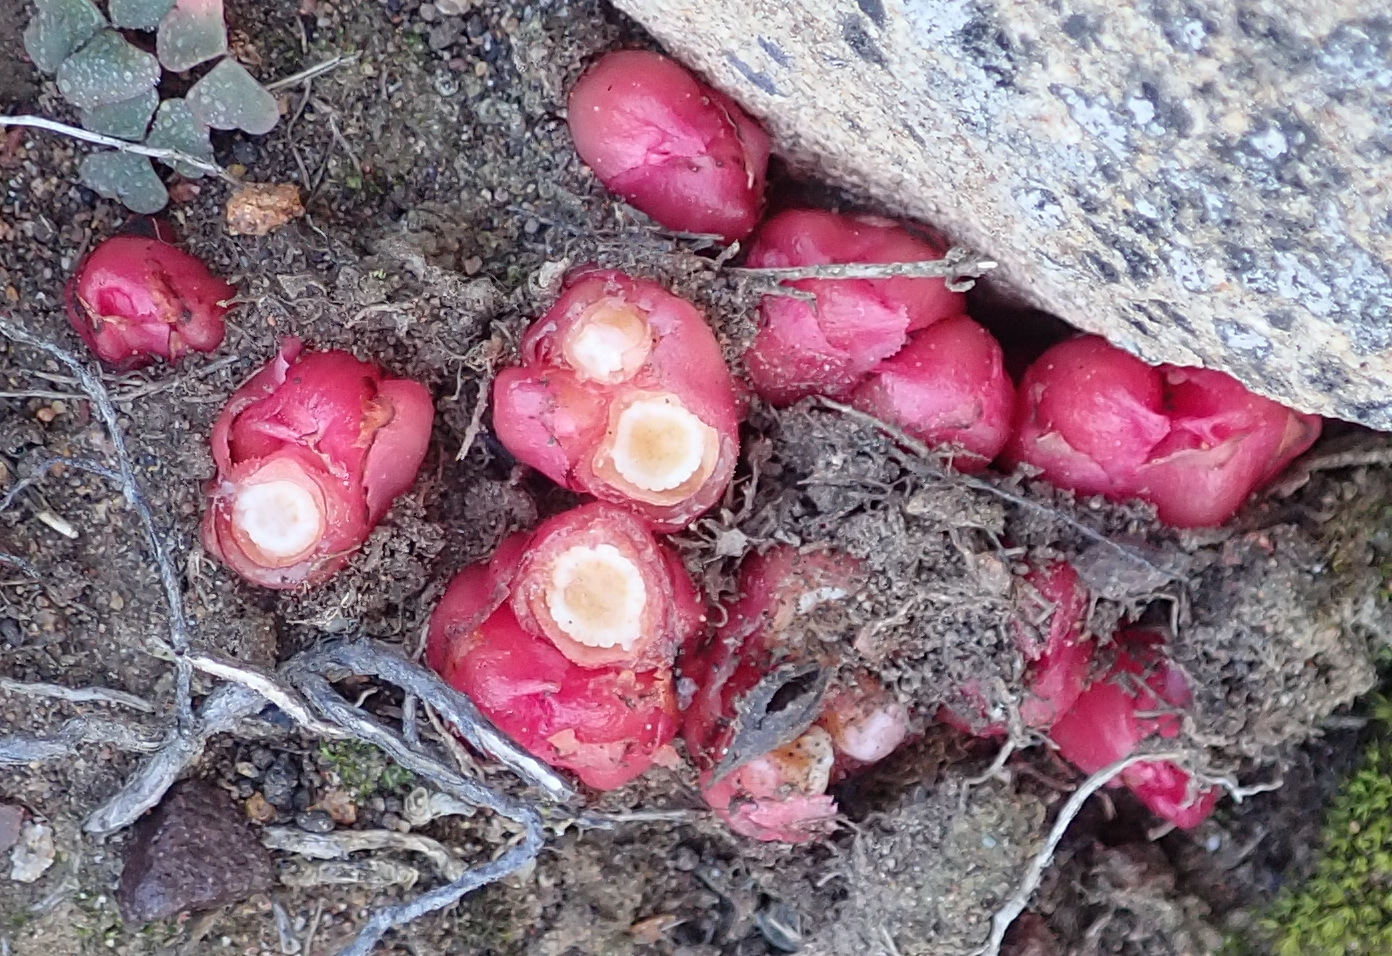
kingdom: Plantae
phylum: Tracheophyta
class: Magnoliopsida
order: Malvales
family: Cytinaceae
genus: Cytinus
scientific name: Cytinus sanguineus
